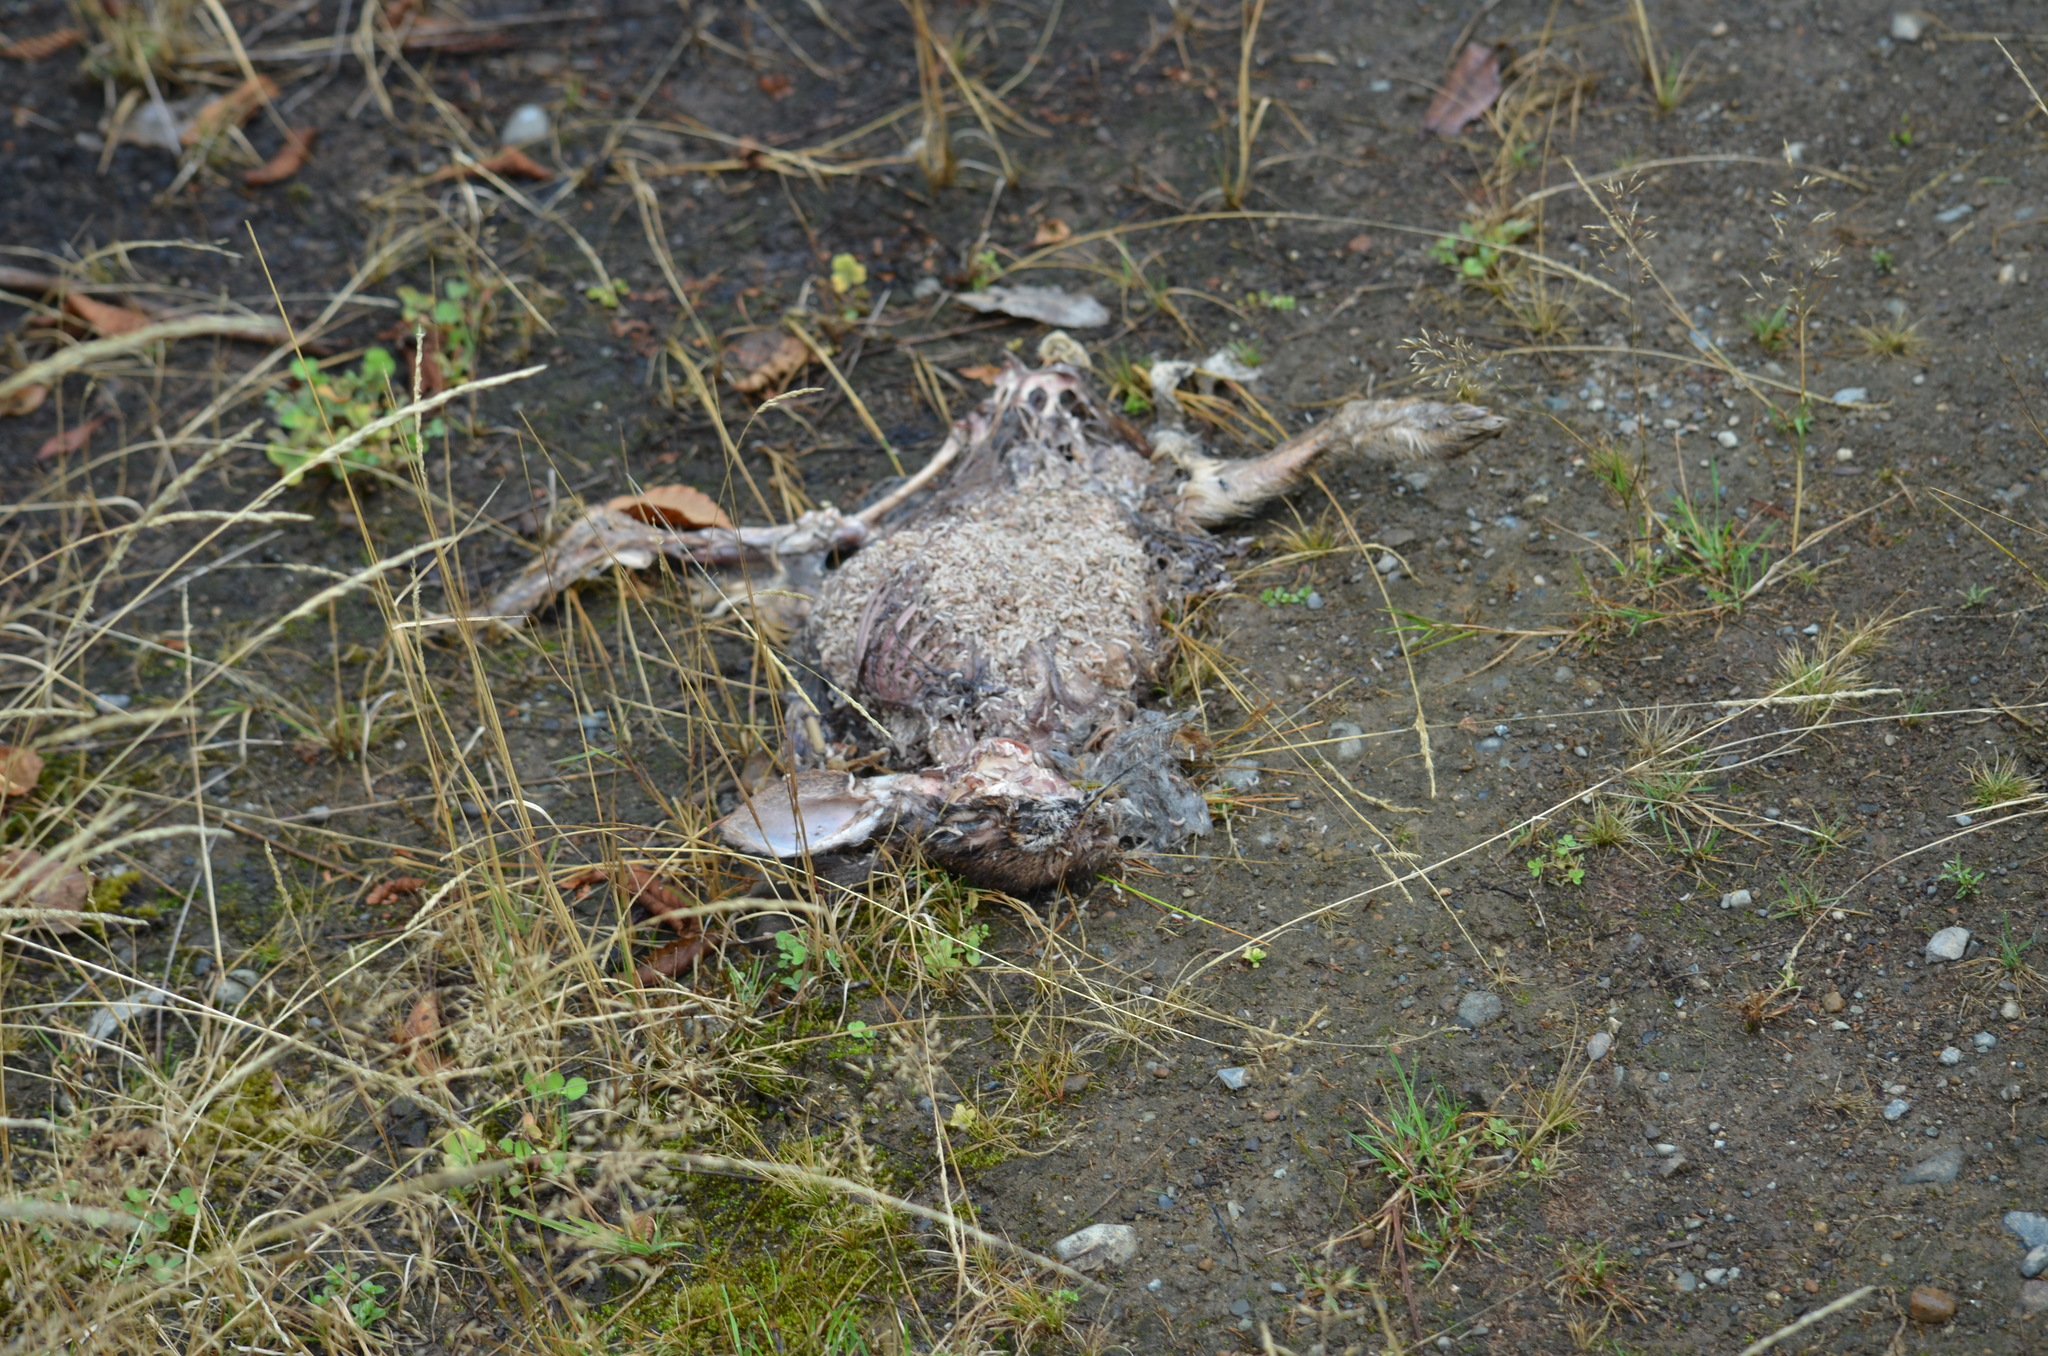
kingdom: Animalia
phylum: Chordata
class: Mammalia
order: Lagomorpha
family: Leporidae
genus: Sylvilagus
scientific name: Sylvilagus floridanus
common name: Eastern cottontail
